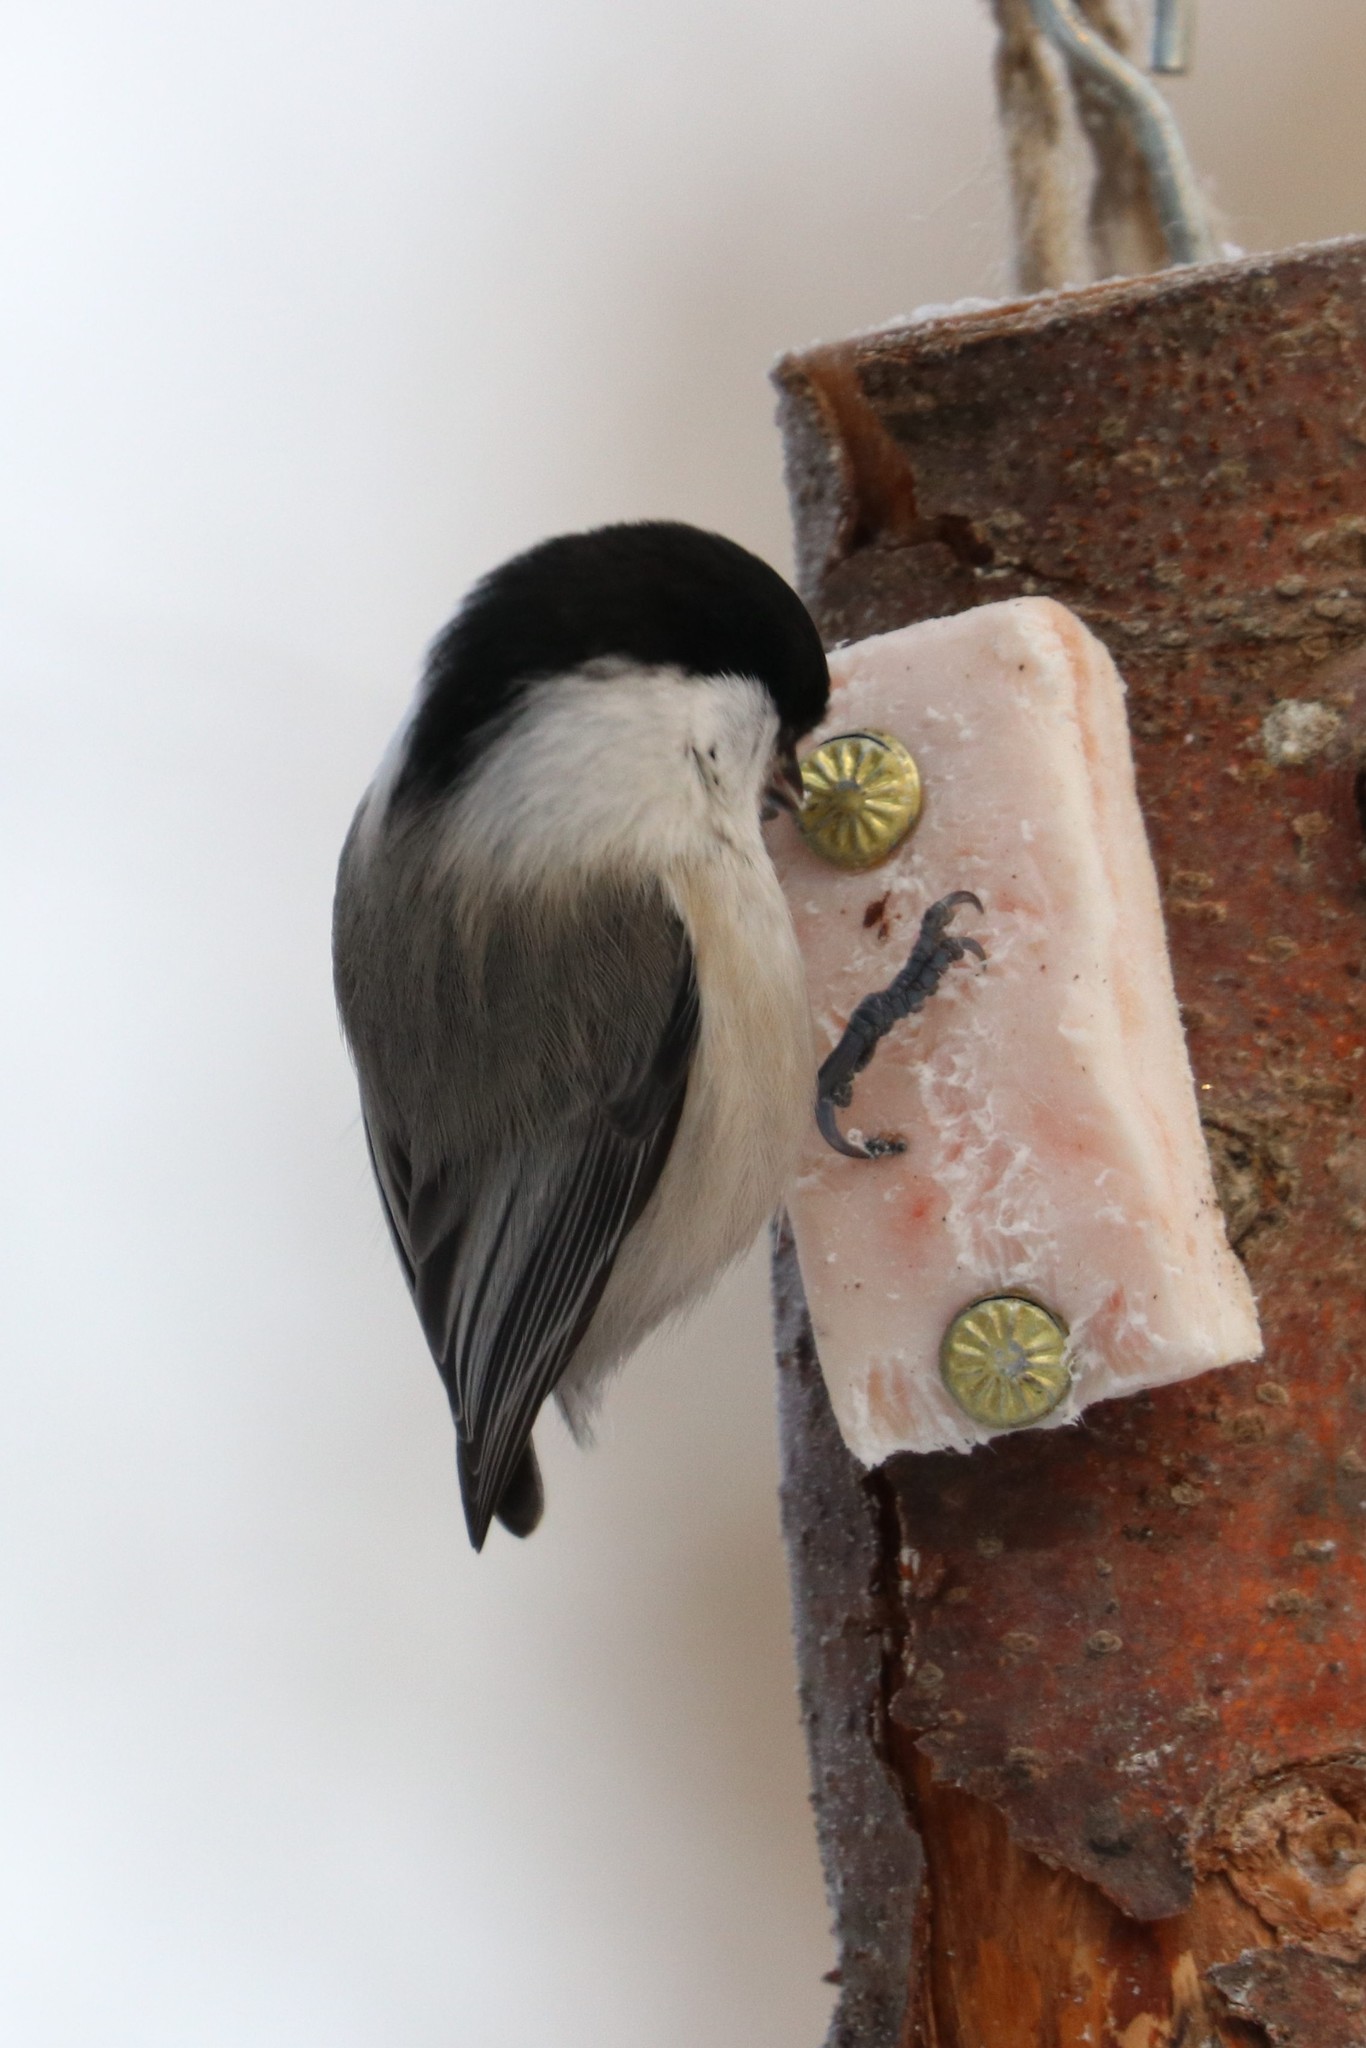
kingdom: Animalia
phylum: Chordata
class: Aves
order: Passeriformes
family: Paridae
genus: Poecile
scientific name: Poecile montanus
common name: Willow tit
